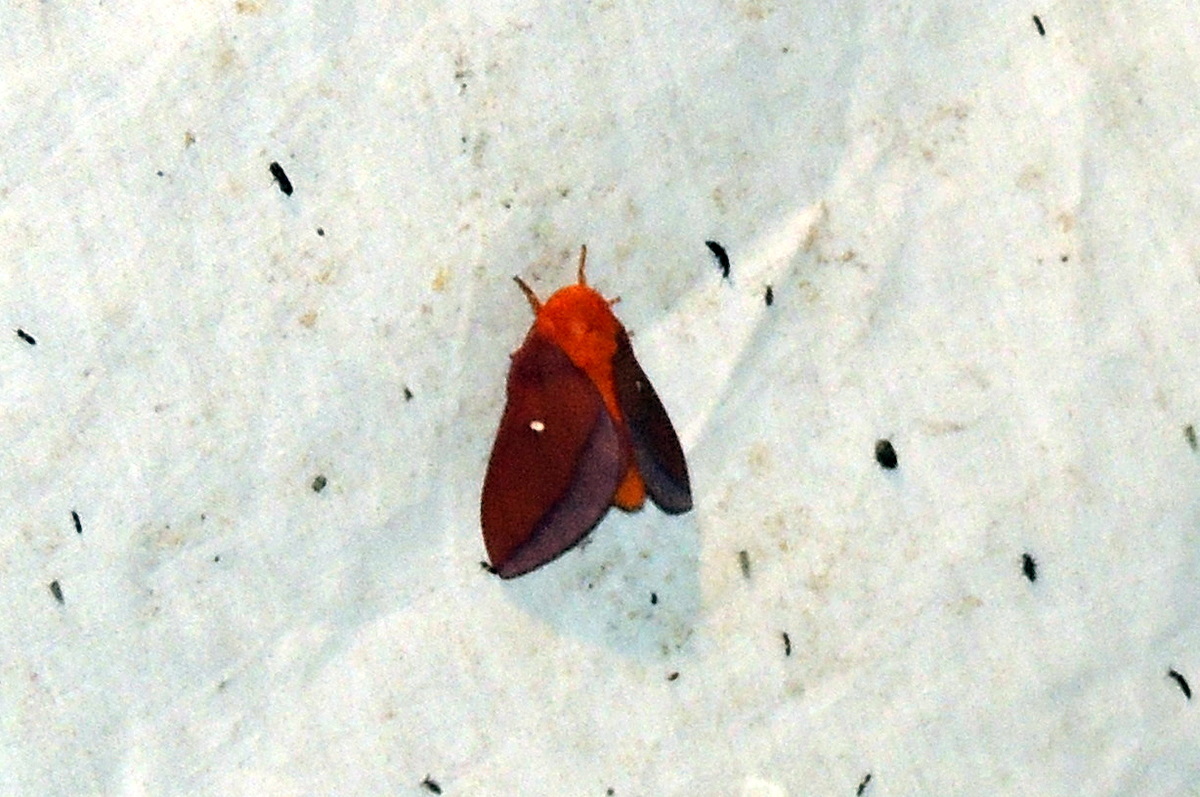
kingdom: Animalia
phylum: Arthropoda
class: Insecta
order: Lepidoptera
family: Saturniidae
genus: Anisota
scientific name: Anisota virginiensis
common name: Pink striped oakworm moth
